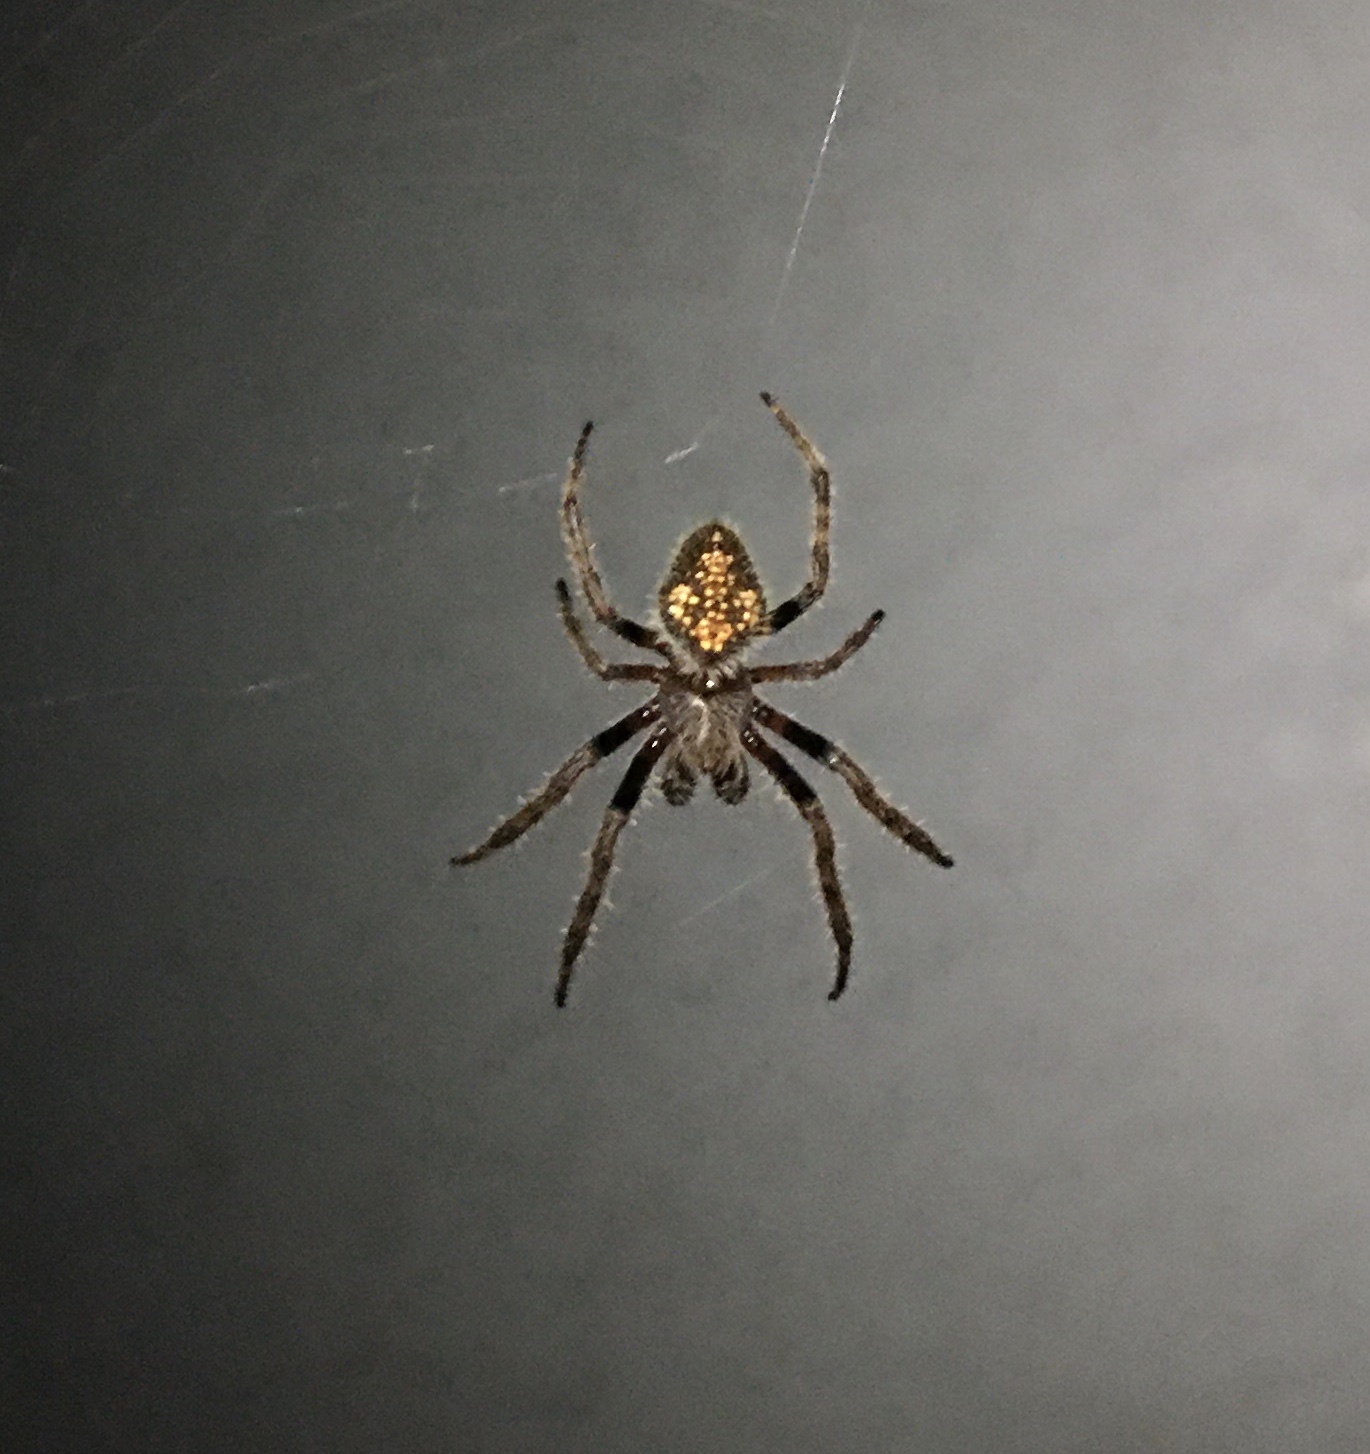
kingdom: Animalia
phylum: Arthropoda
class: Arachnida
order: Araneae
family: Araneidae
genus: Eriophora
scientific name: Eriophora ravilla
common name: Orb weavers
